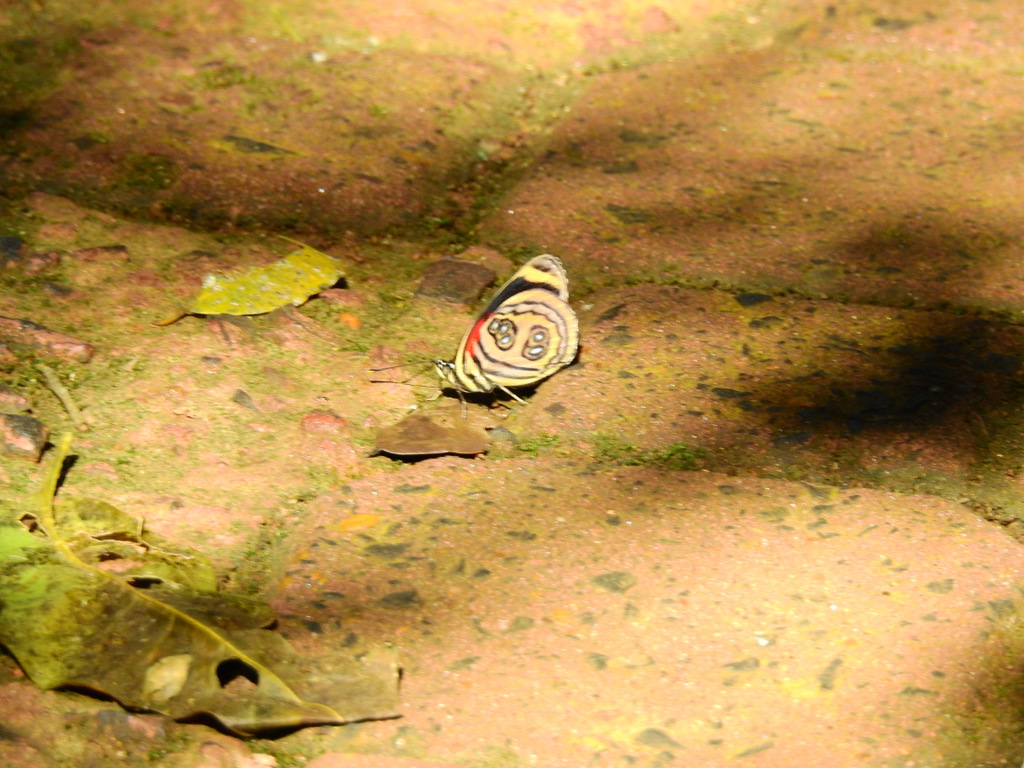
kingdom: Animalia
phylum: Arthropoda
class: Insecta
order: Lepidoptera
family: Nymphalidae
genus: Catagramma
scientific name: Catagramma pygas
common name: Godart's numberwing
